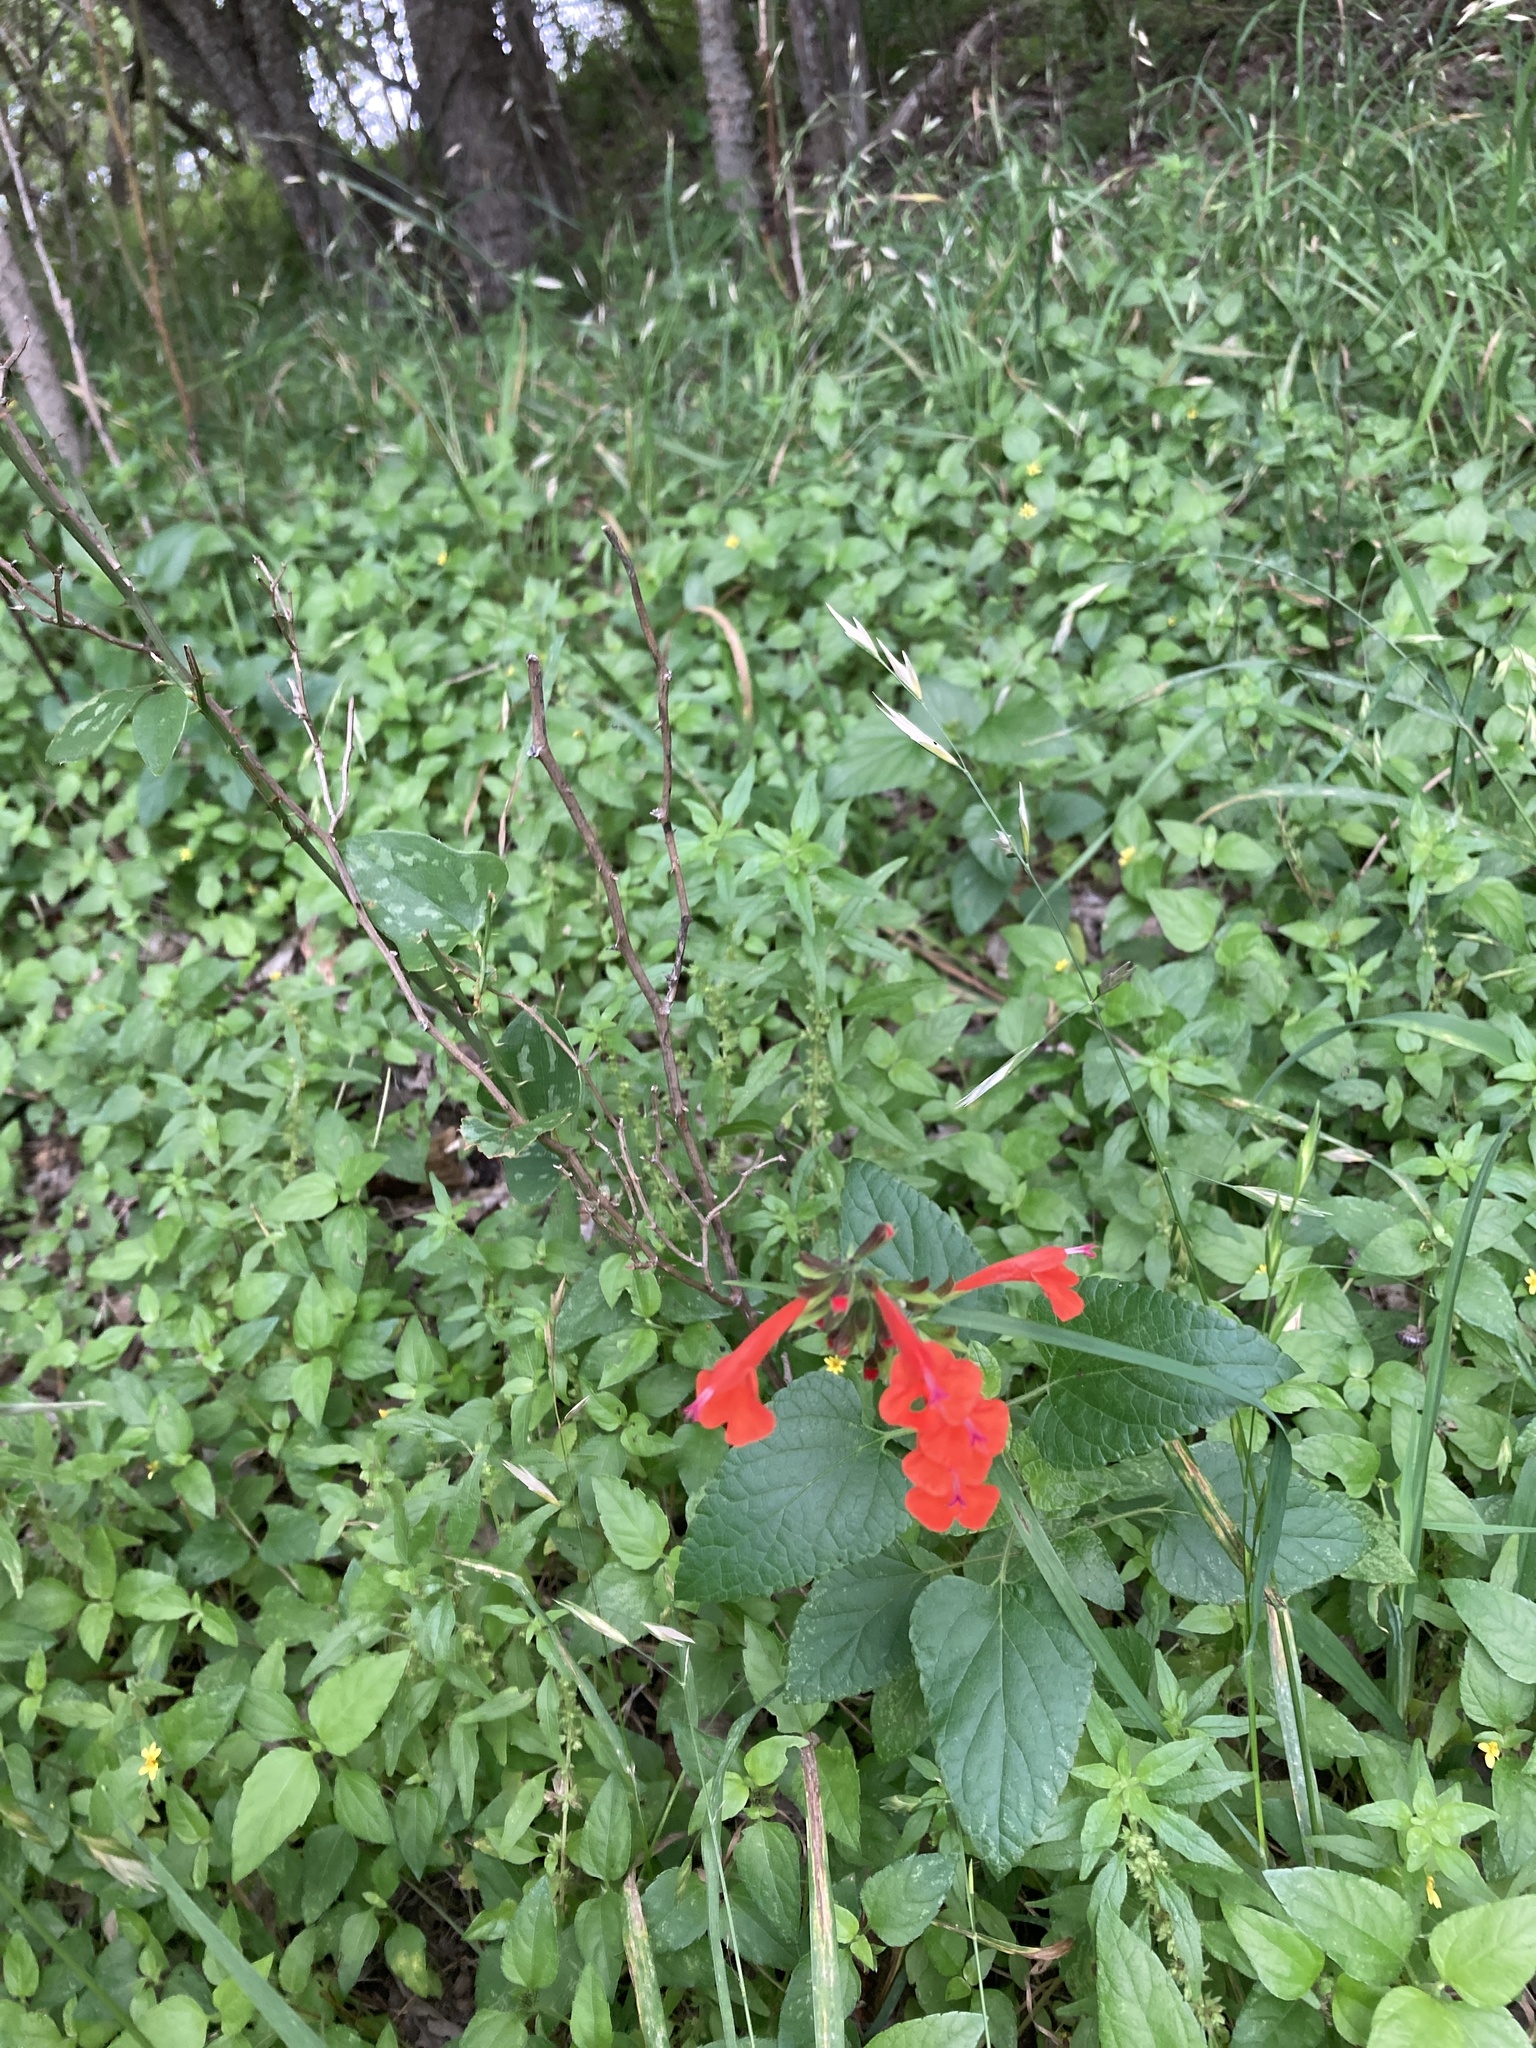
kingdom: Plantae
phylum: Tracheophyta
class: Magnoliopsida
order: Lamiales
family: Lamiaceae
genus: Salvia
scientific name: Salvia coccinea
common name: Blood sage
